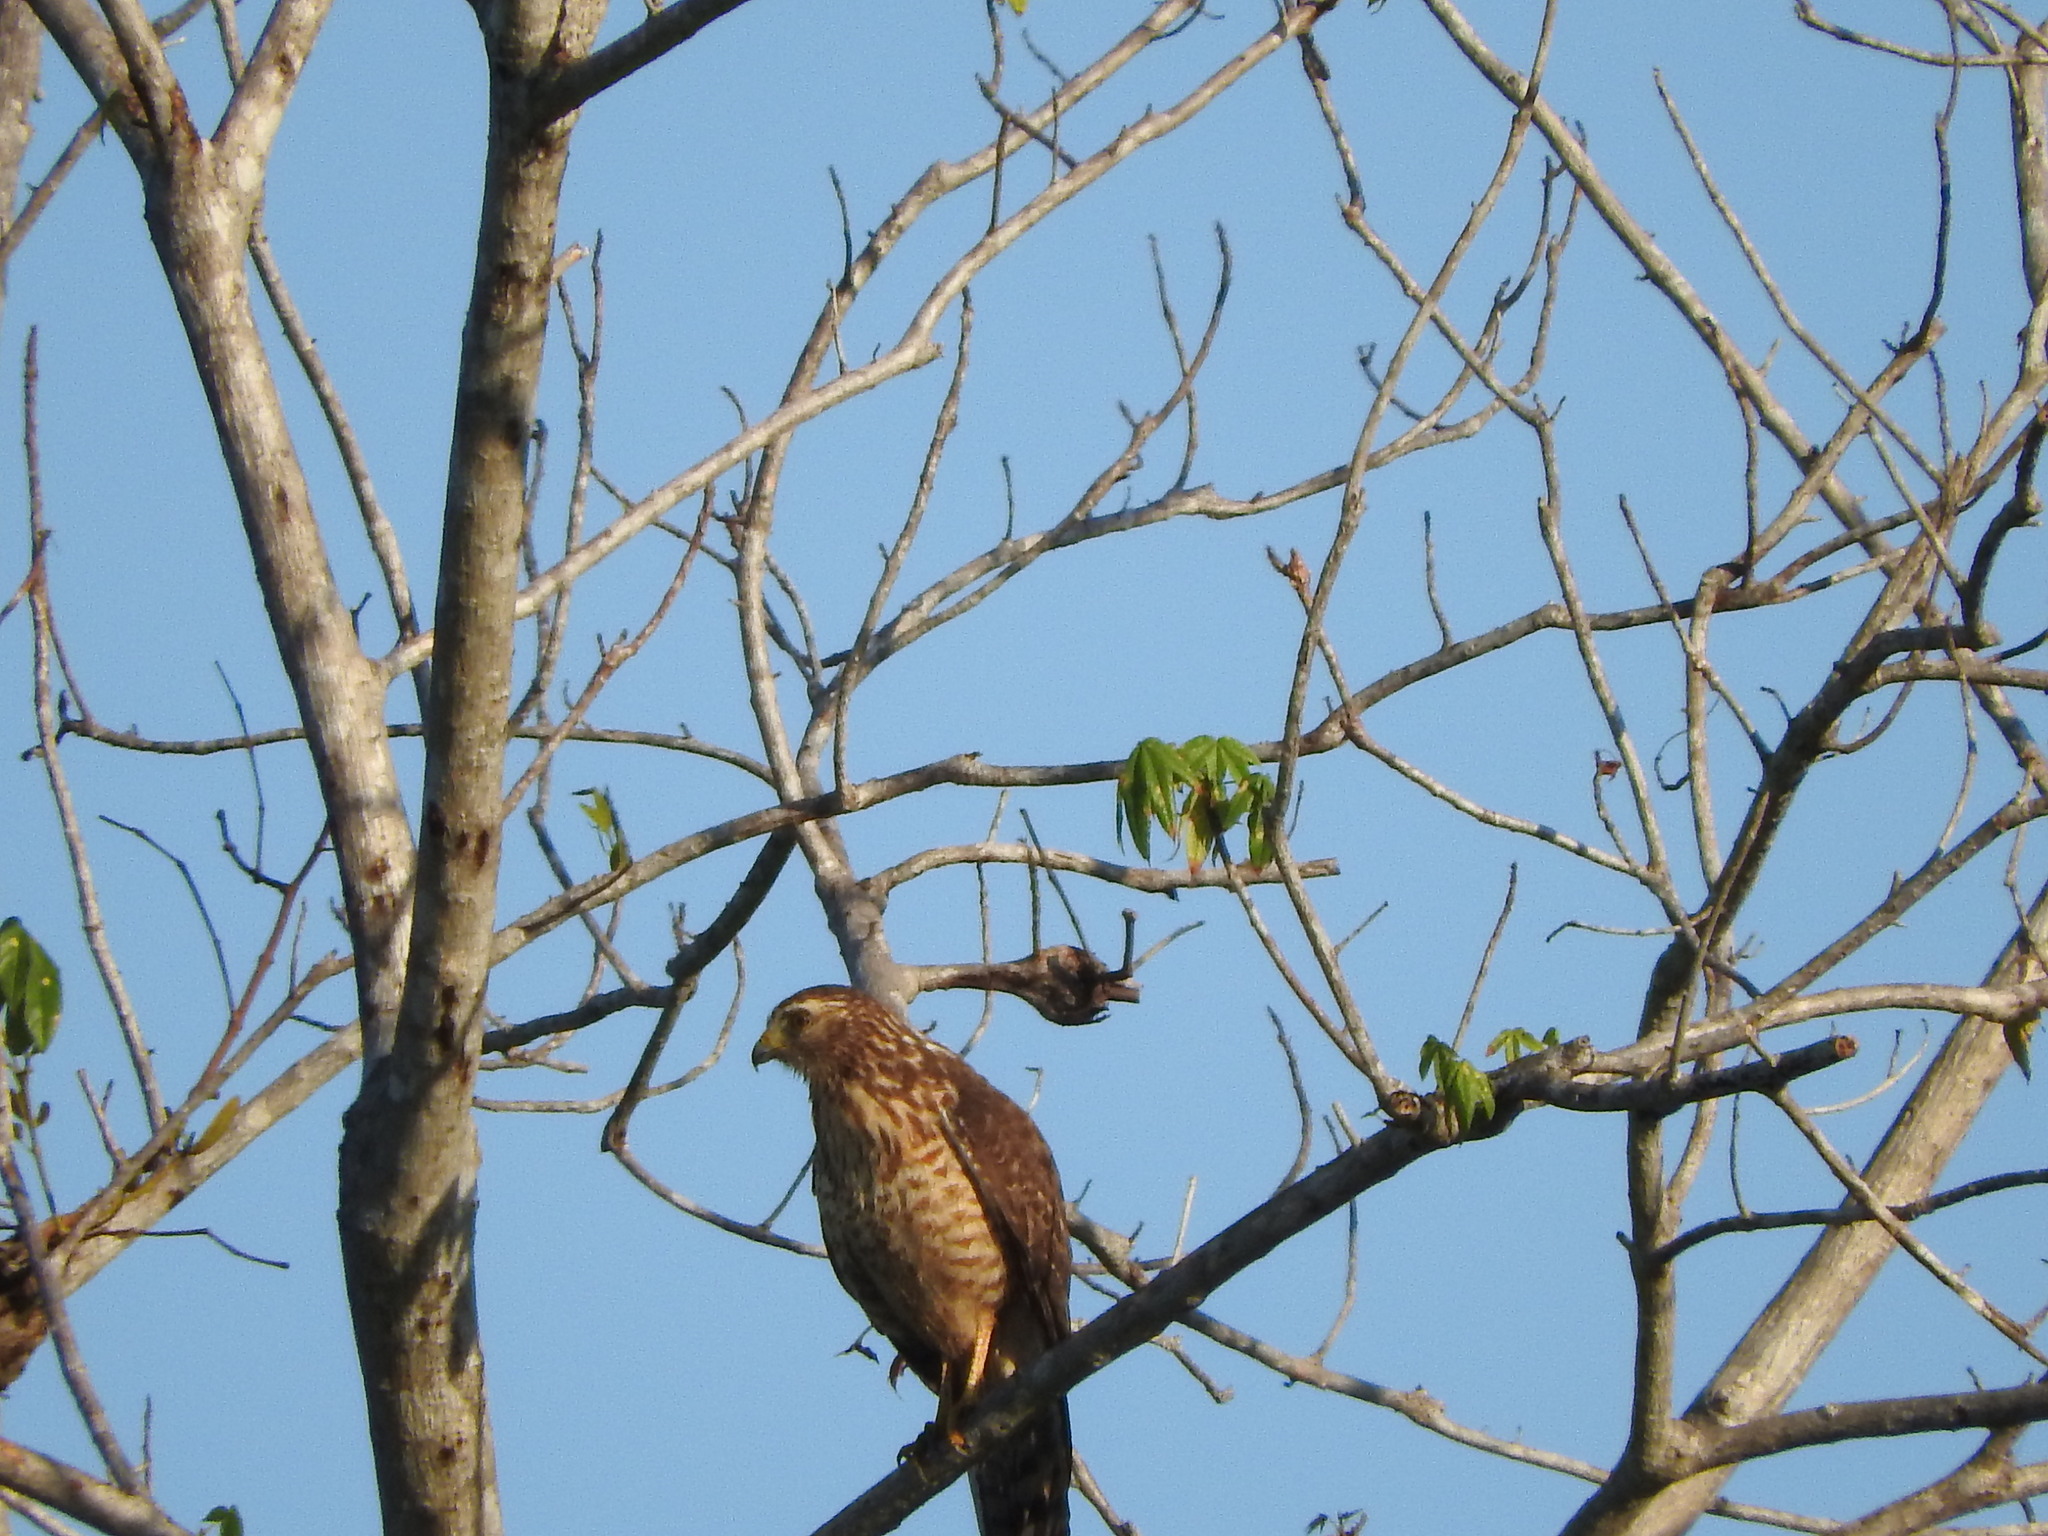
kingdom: Animalia
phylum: Chordata
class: Aves
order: Accipitriformes
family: Accipitridae
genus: Rupornis
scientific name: Rupornis magnirostris
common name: Roadside hawk
